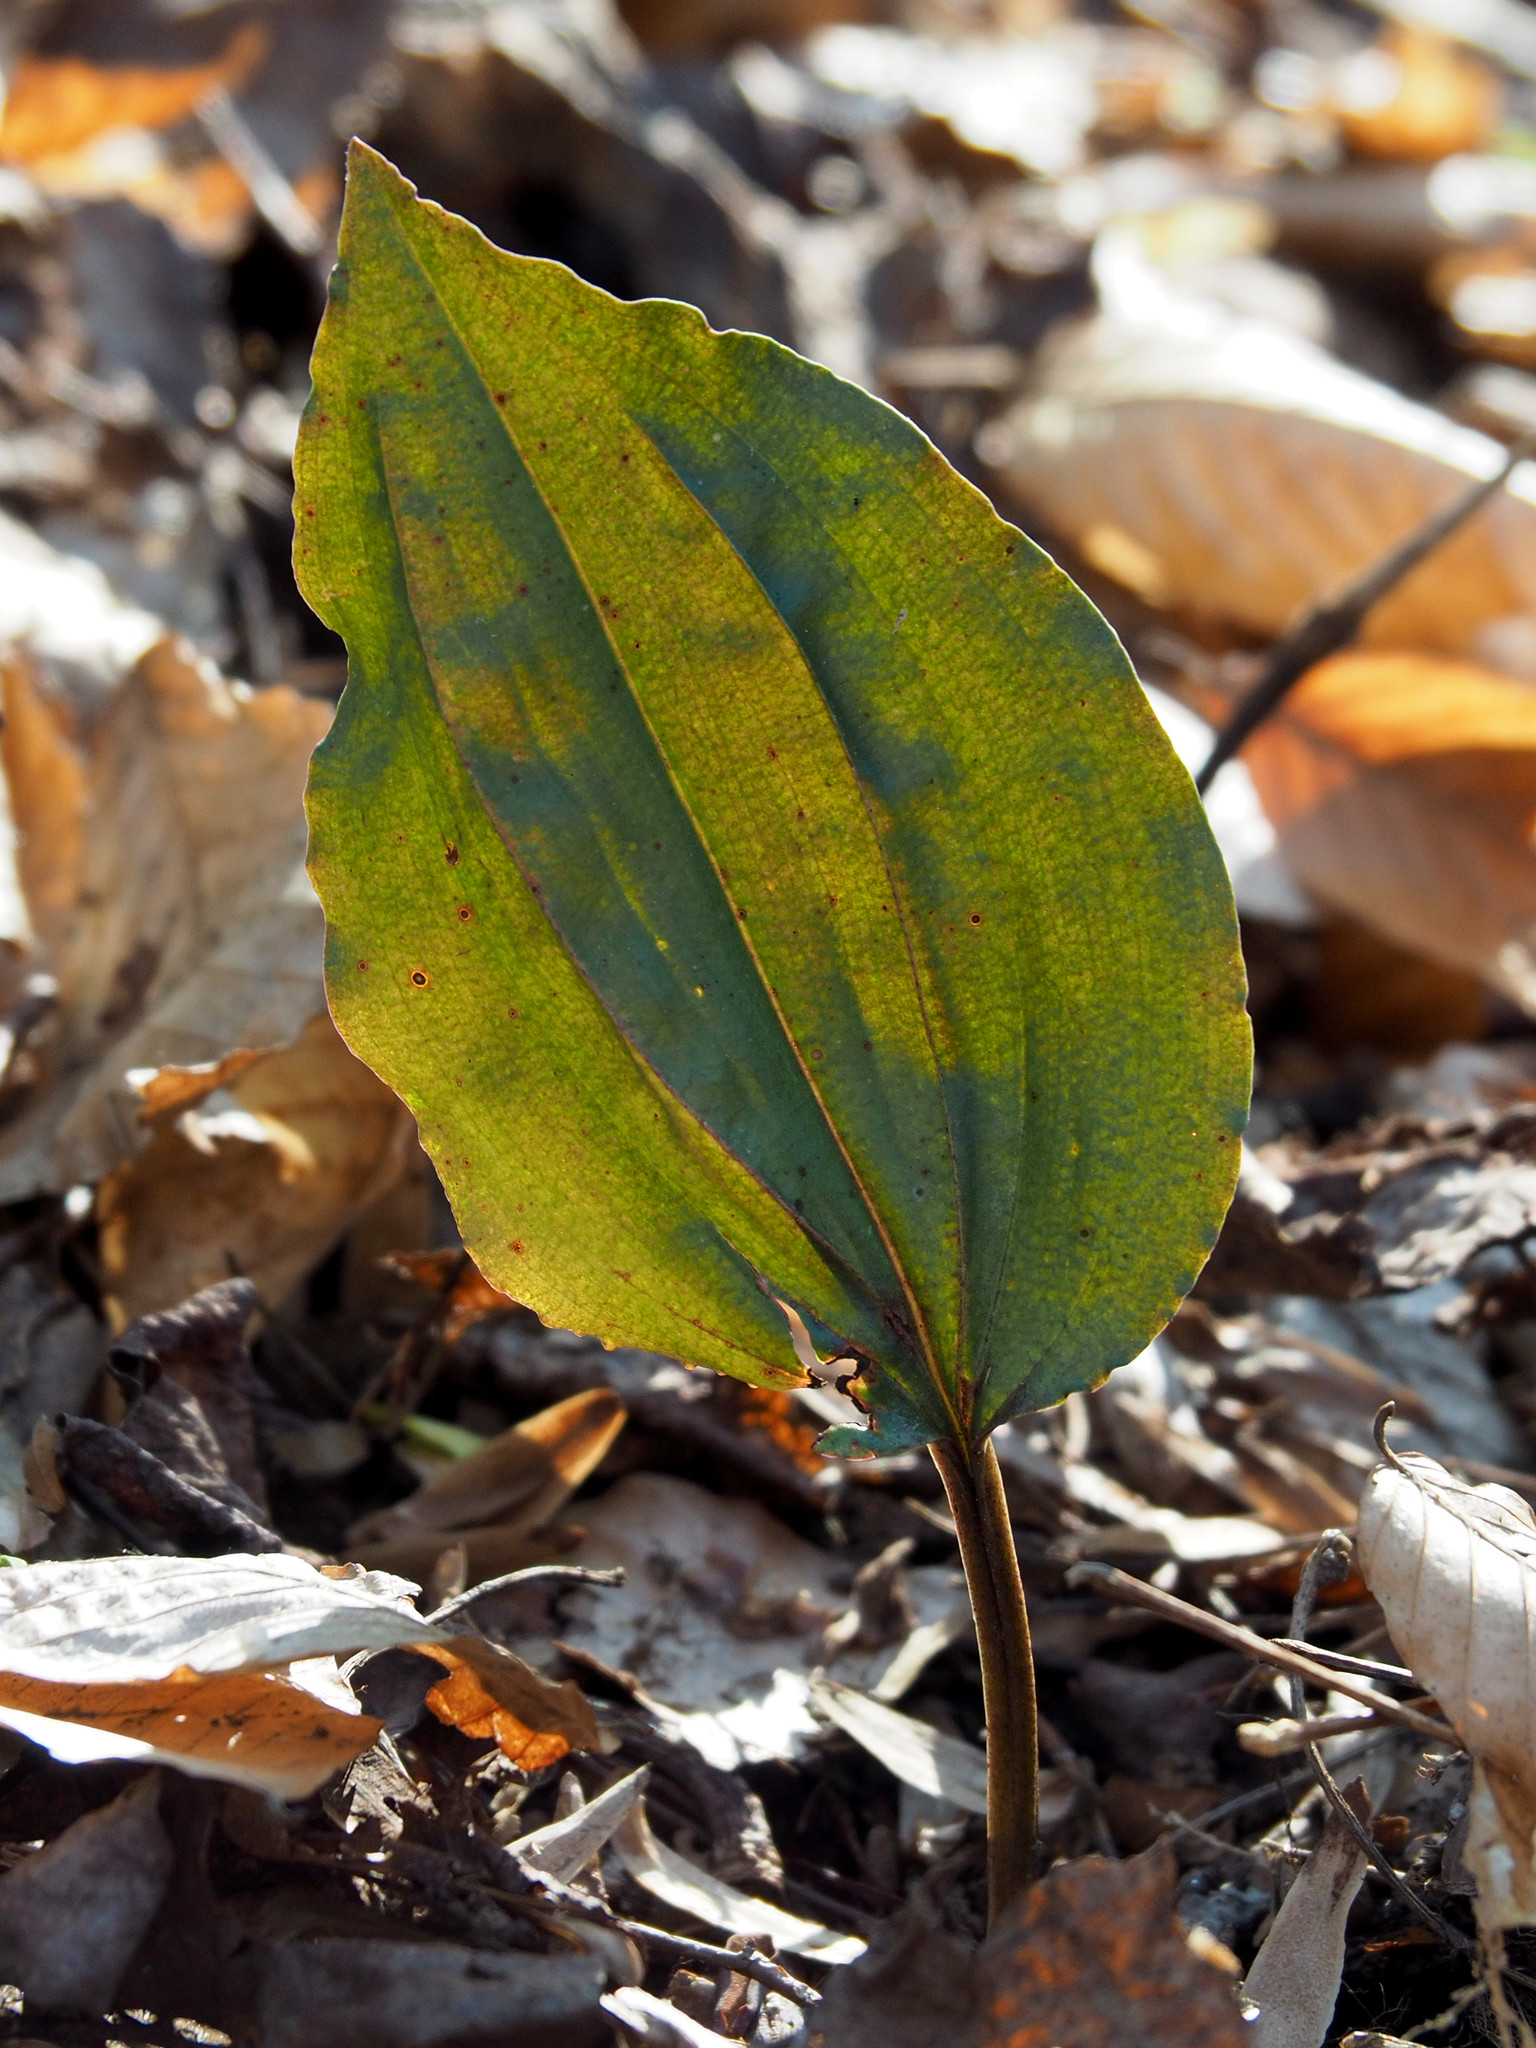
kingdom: Plantae
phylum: Tracheophyta
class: Liliopsida
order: Asparagales
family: Orchidaceae
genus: Tipularia
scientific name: Tipularia discolor
